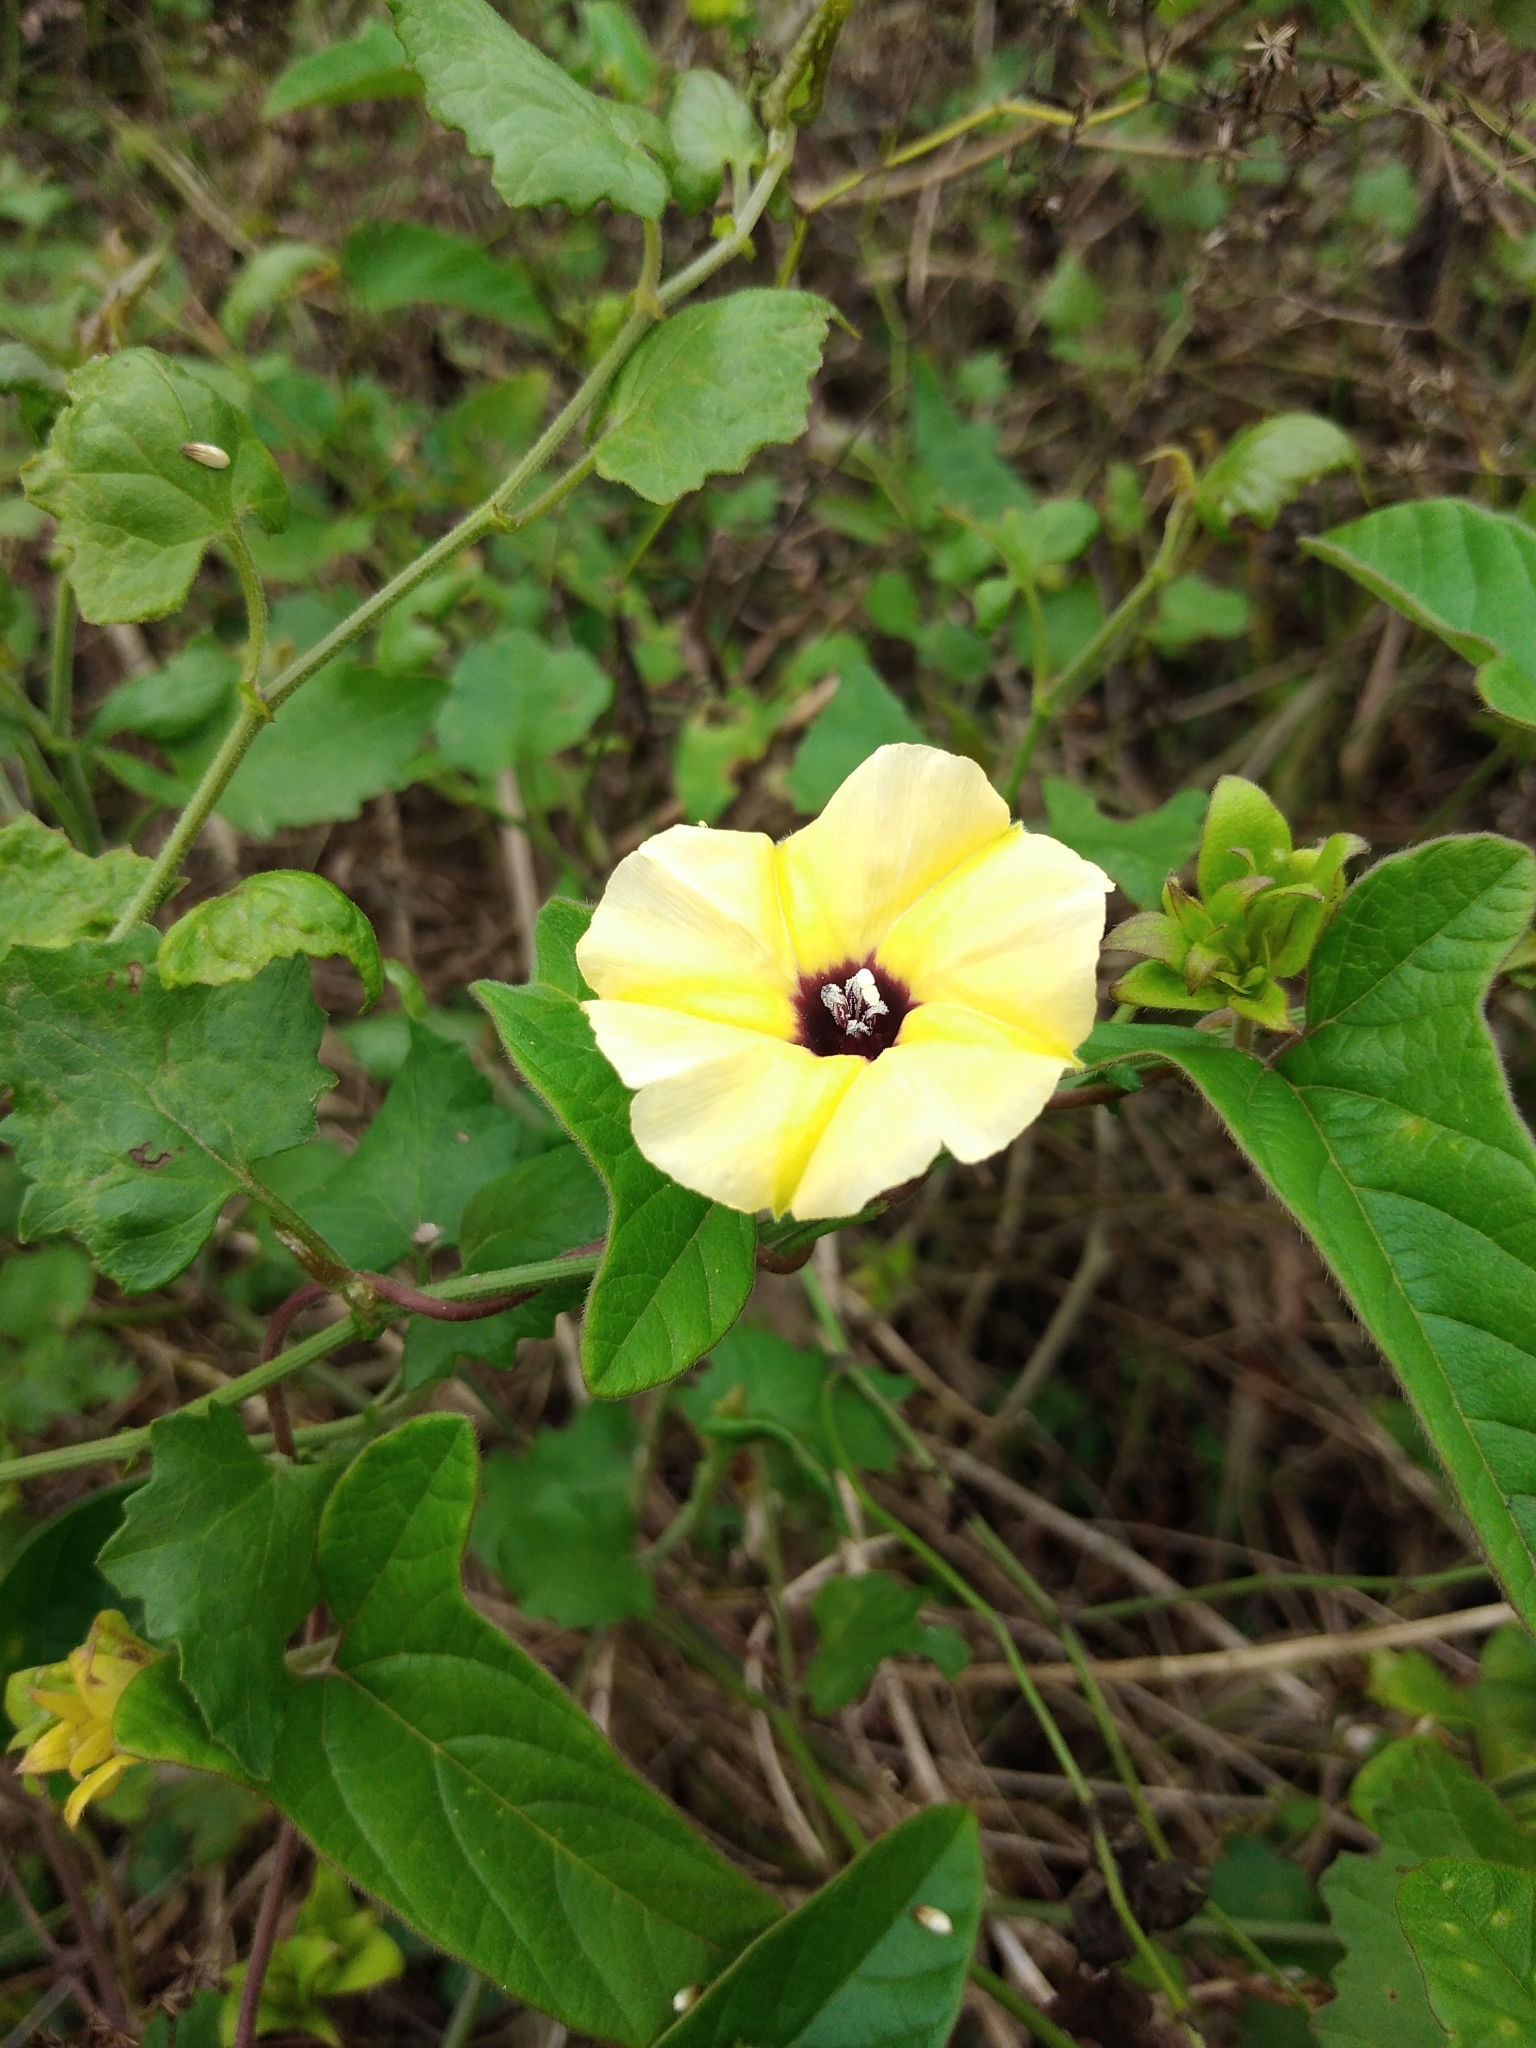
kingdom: Plantae
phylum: Tracheophyta
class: Magnoliopsida
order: Solanales
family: Convolvulaceae
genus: Hewittia
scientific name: Hewittia malabarica
